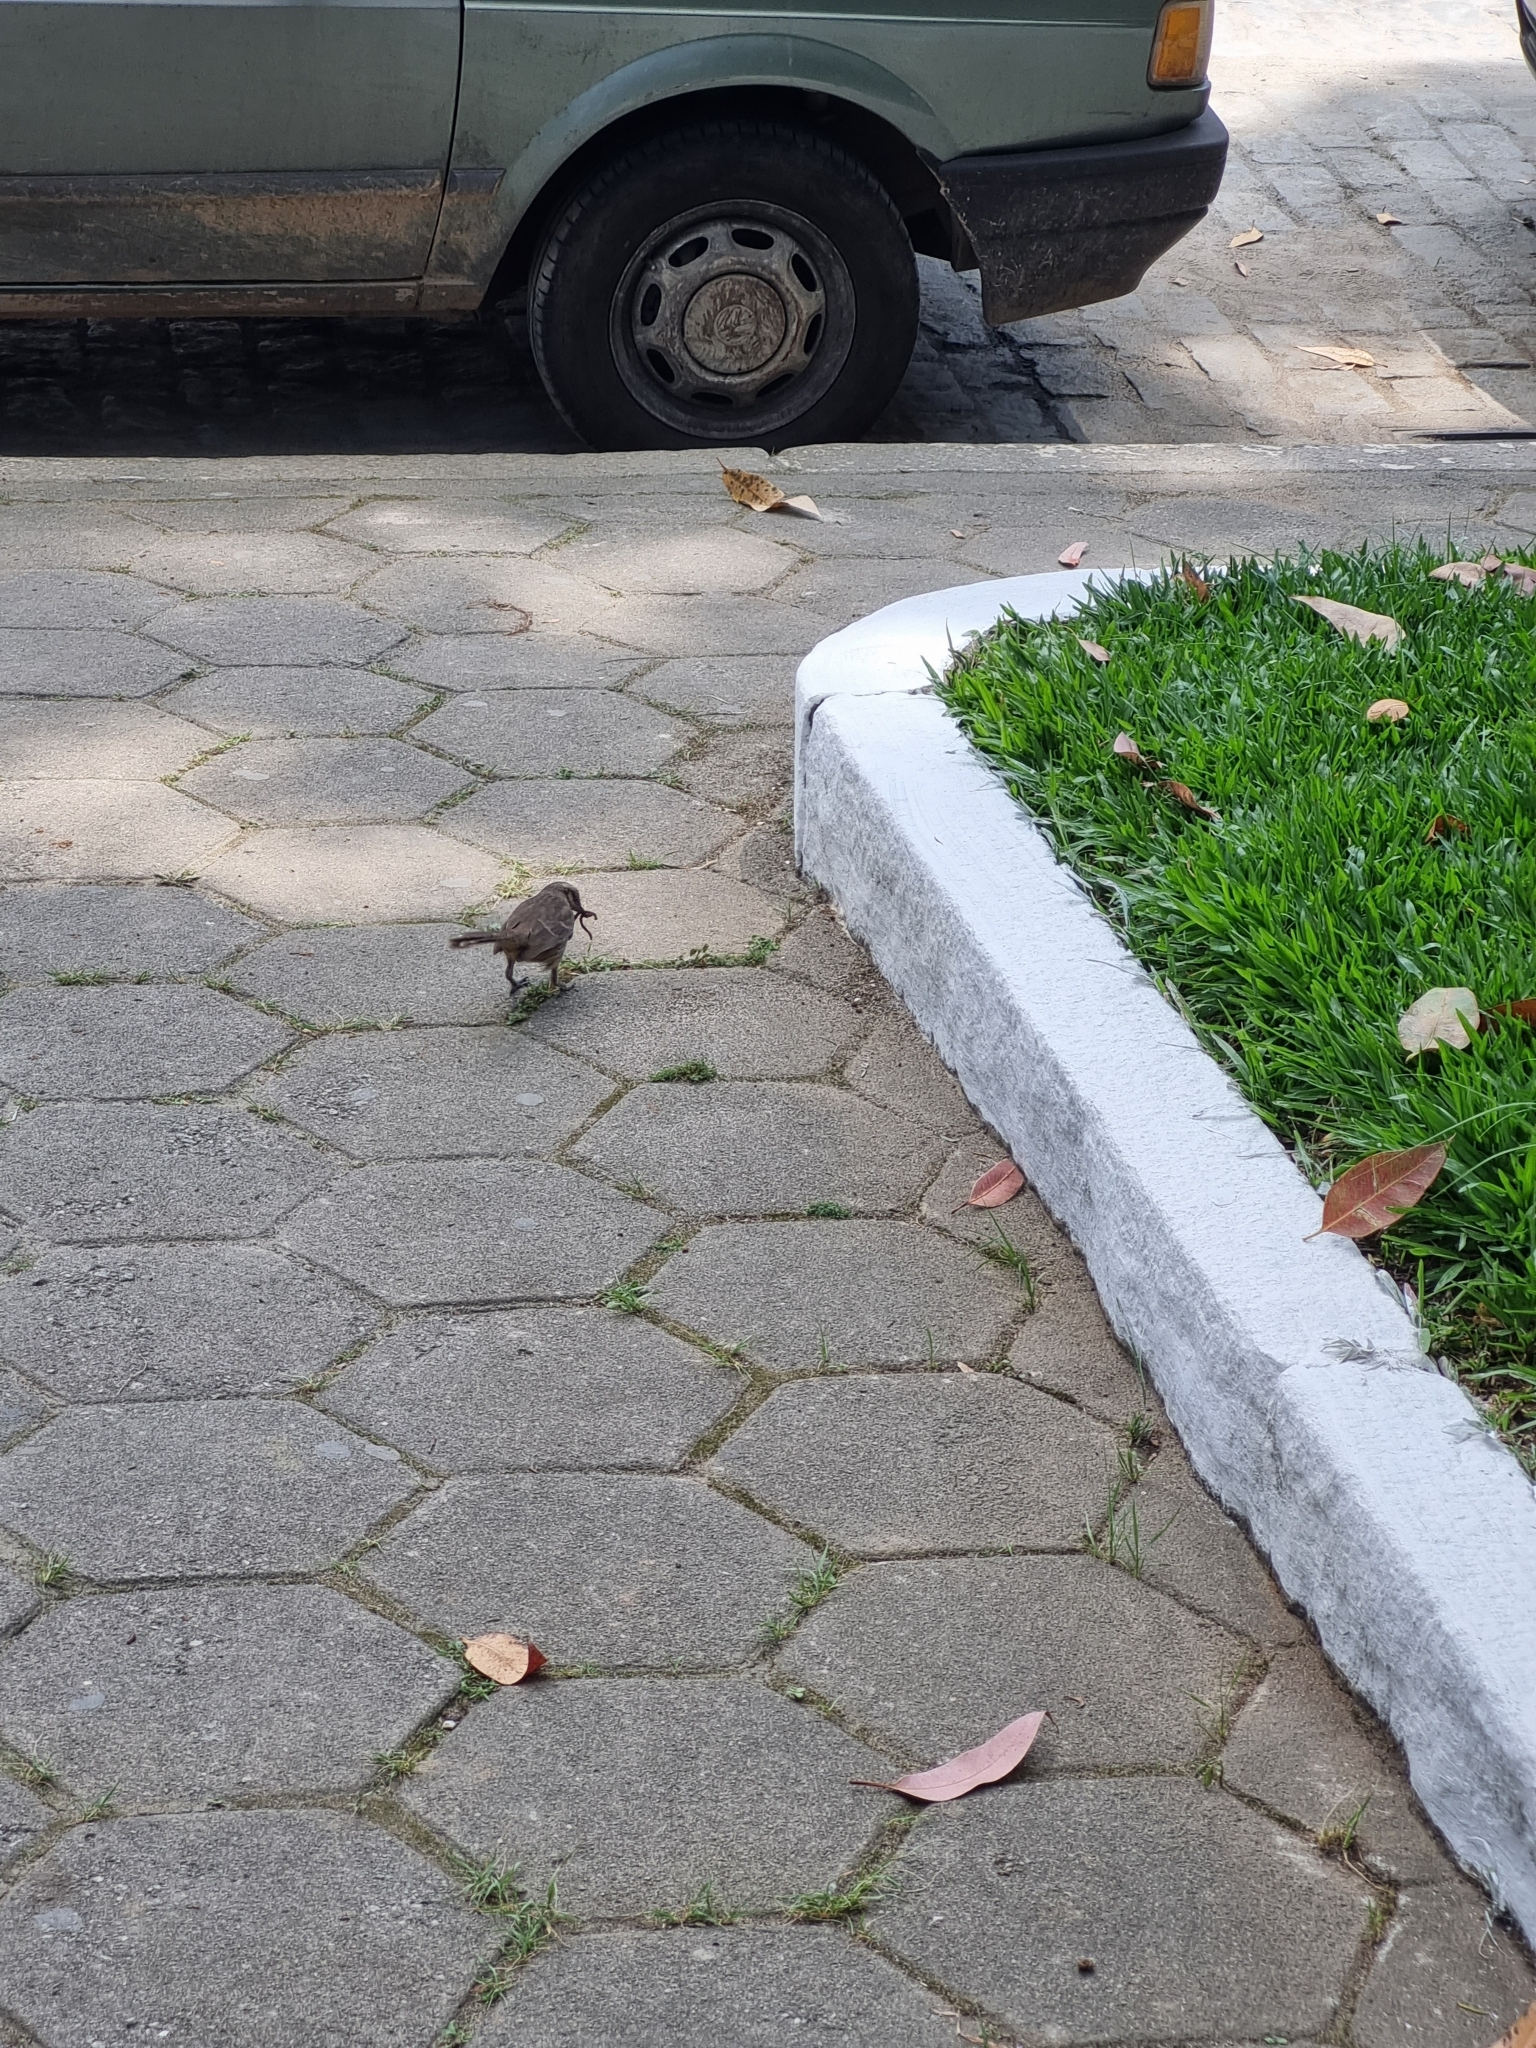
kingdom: Animalia
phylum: Chordata
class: Aves
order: Passeriformes
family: Mimidae
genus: Mimus
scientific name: Mimus saturninus
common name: Chalk-browed mockingbird
